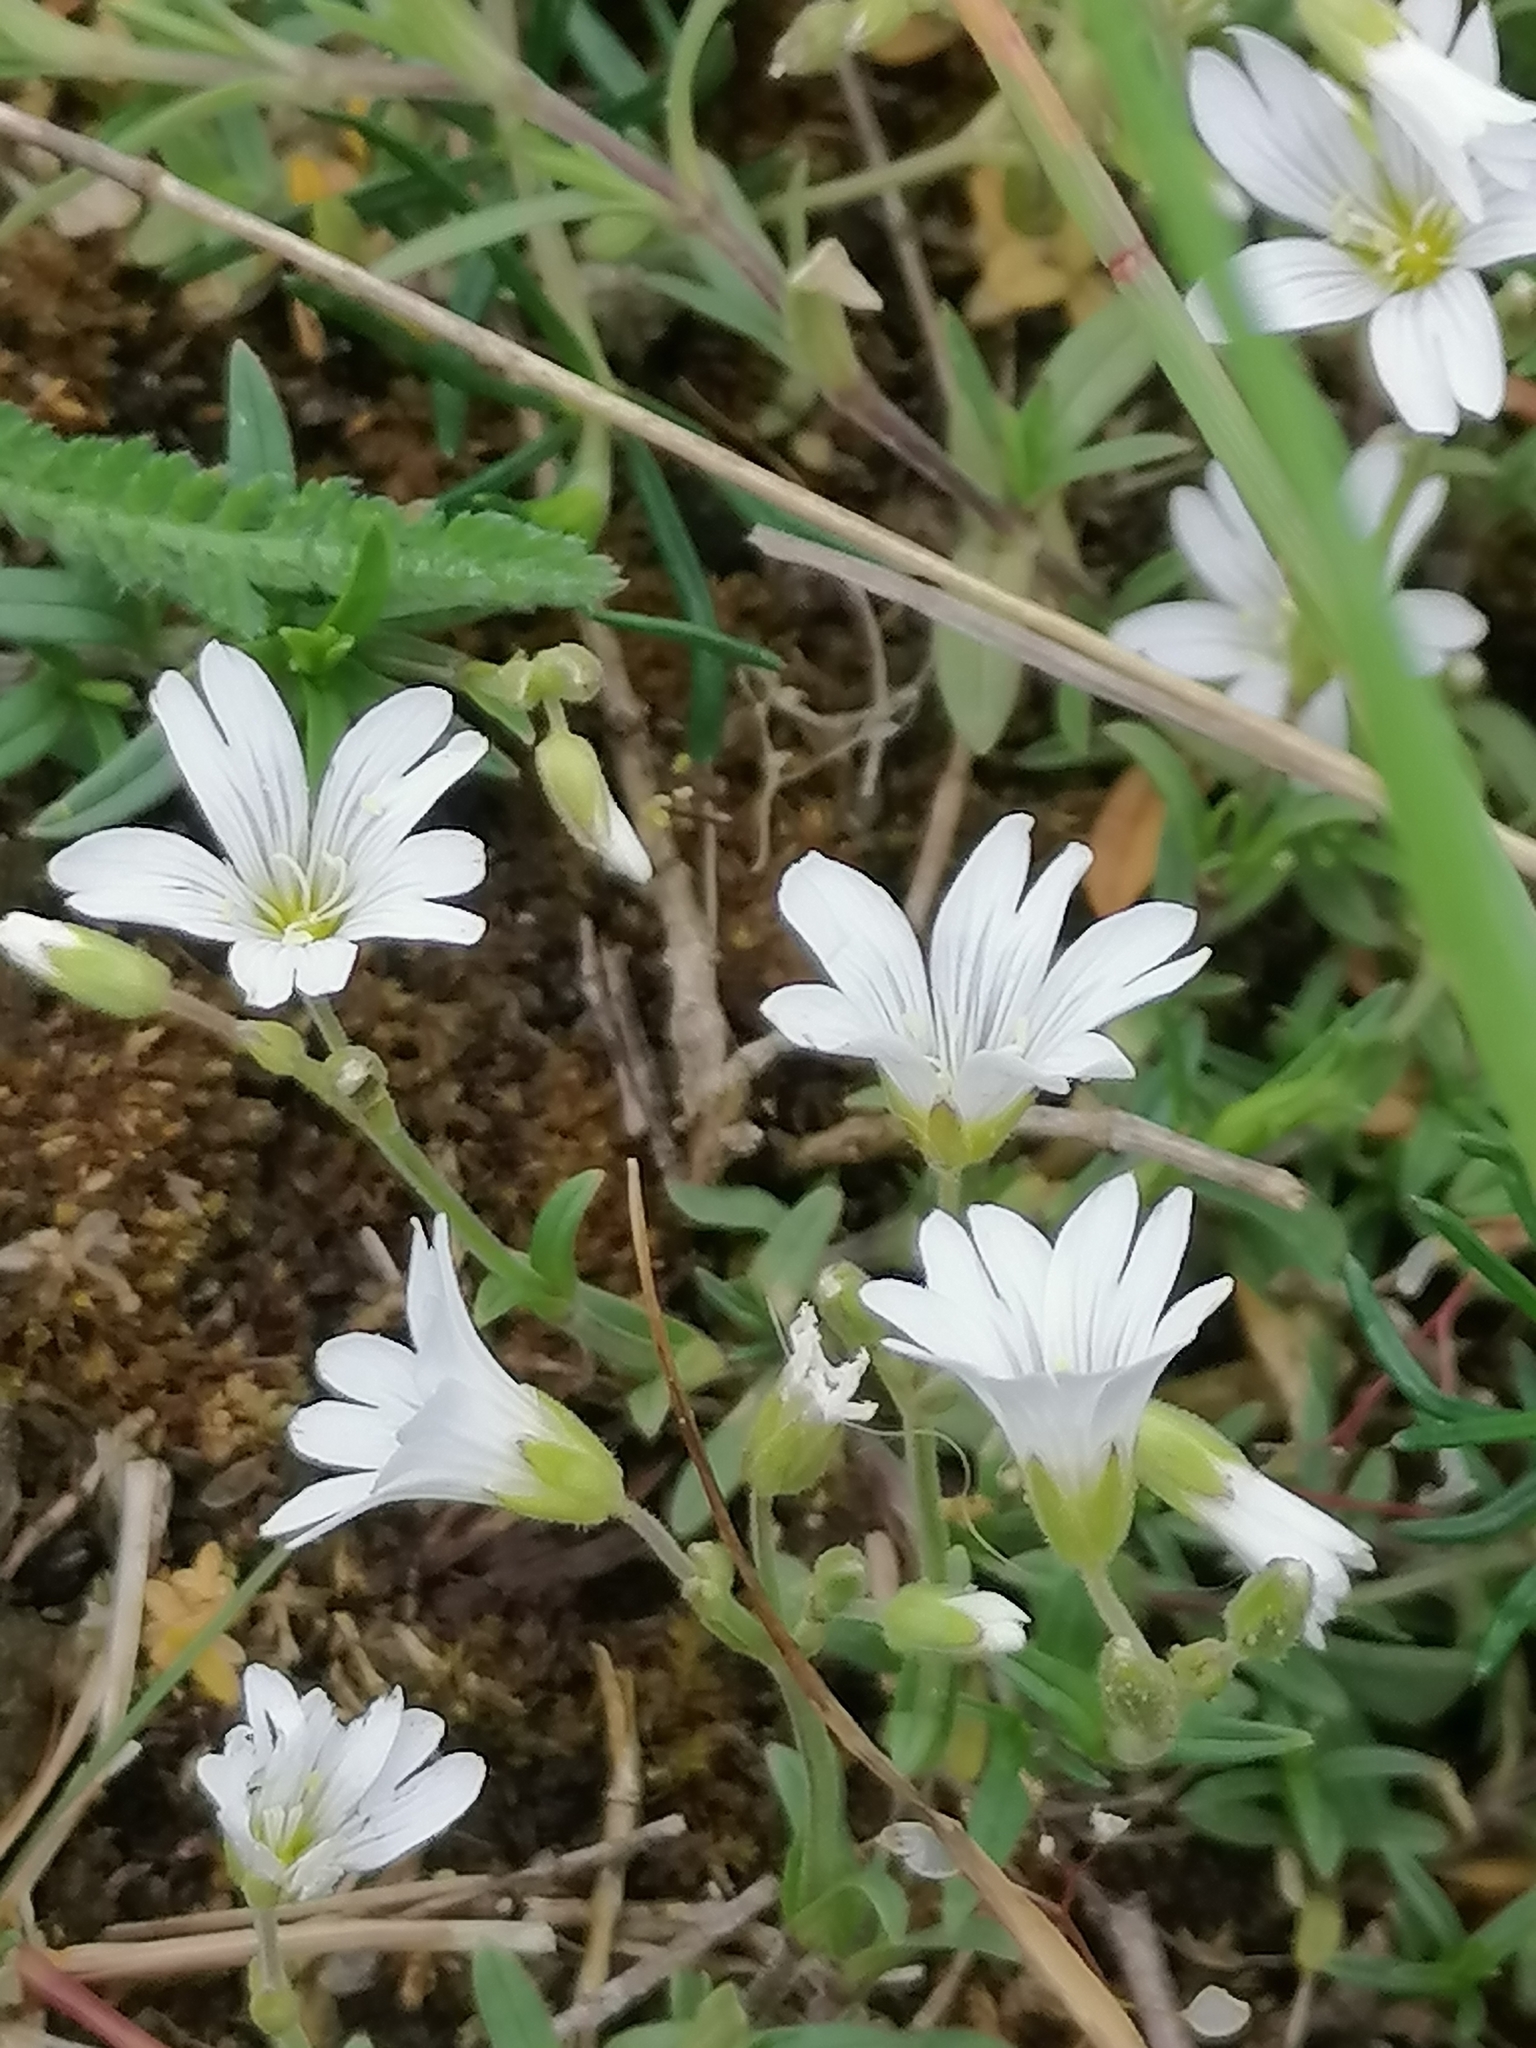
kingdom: Plantae
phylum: Tracheophyta
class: Magnoliopsida
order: Caryophyllales
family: Caryophyllaceae
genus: Cerastium
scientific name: Cerastium arvense
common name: Field mouse-ear
